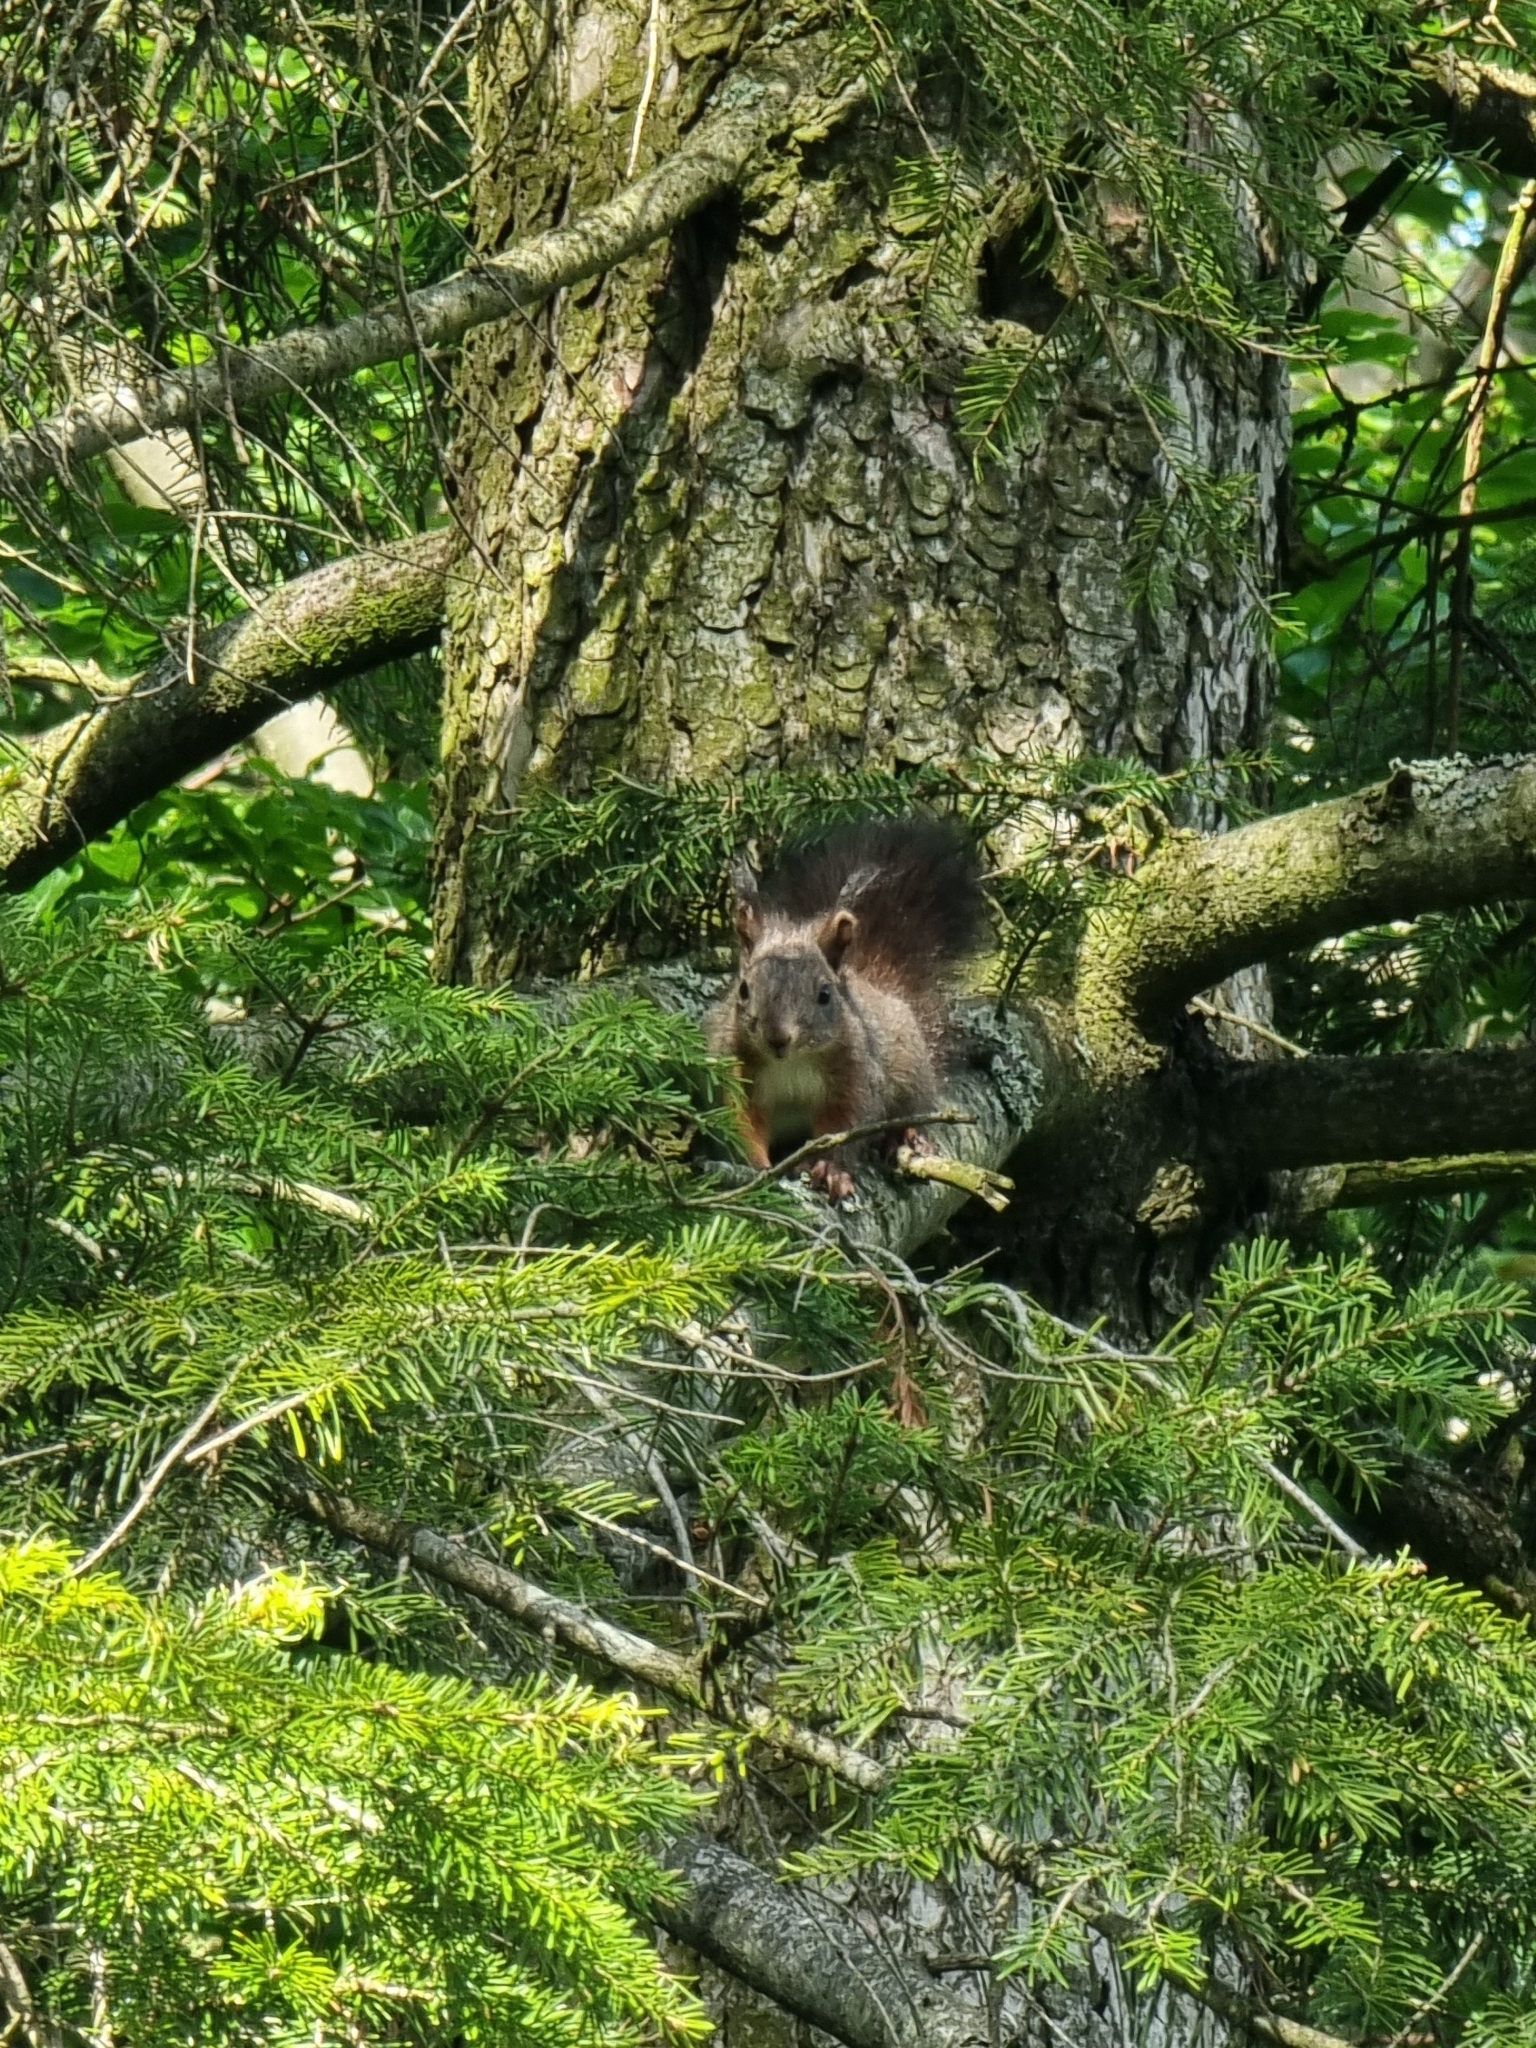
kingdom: Animalia
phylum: Chordata
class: Mammalia
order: Rodentia
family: Sciuridae
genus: Sciurus
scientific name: Sciurus vulgaris
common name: Eurasian red squirrel
